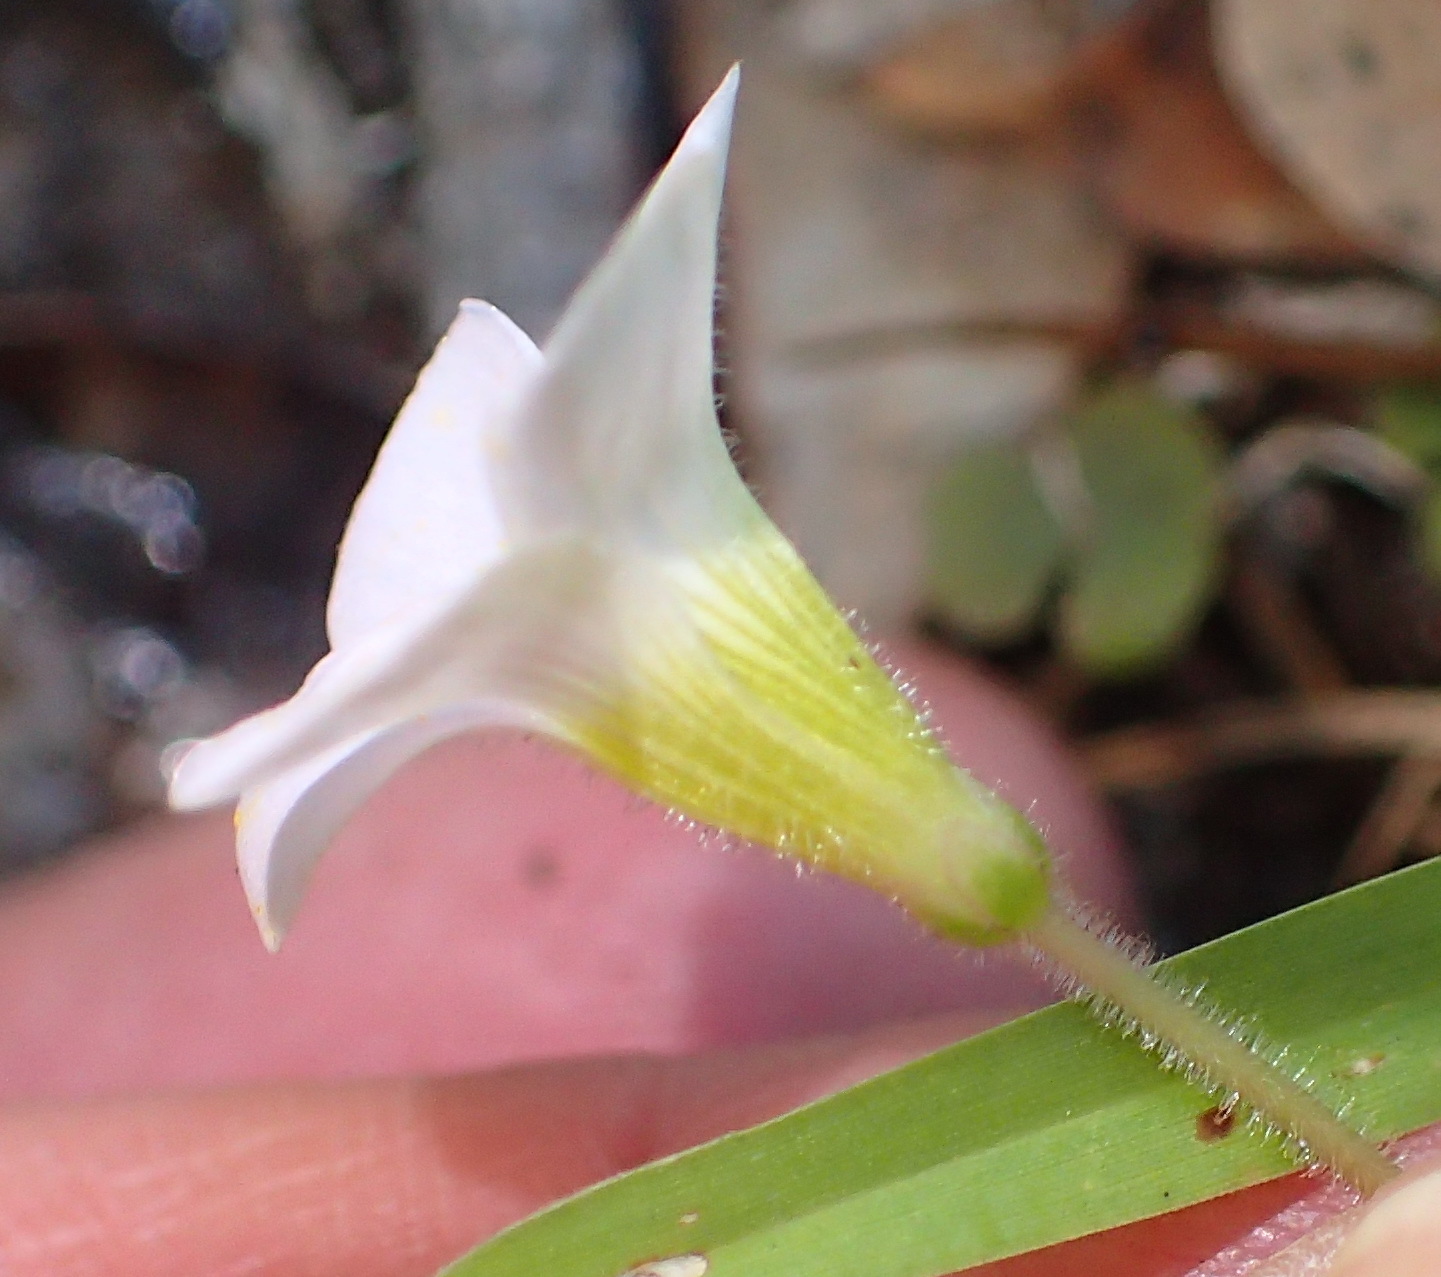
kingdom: Plantae
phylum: Tracheophyta
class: Magnoliopsida
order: Oxalidales
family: Oxalidaceae
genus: Oxalis
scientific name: Oxalis punctata
